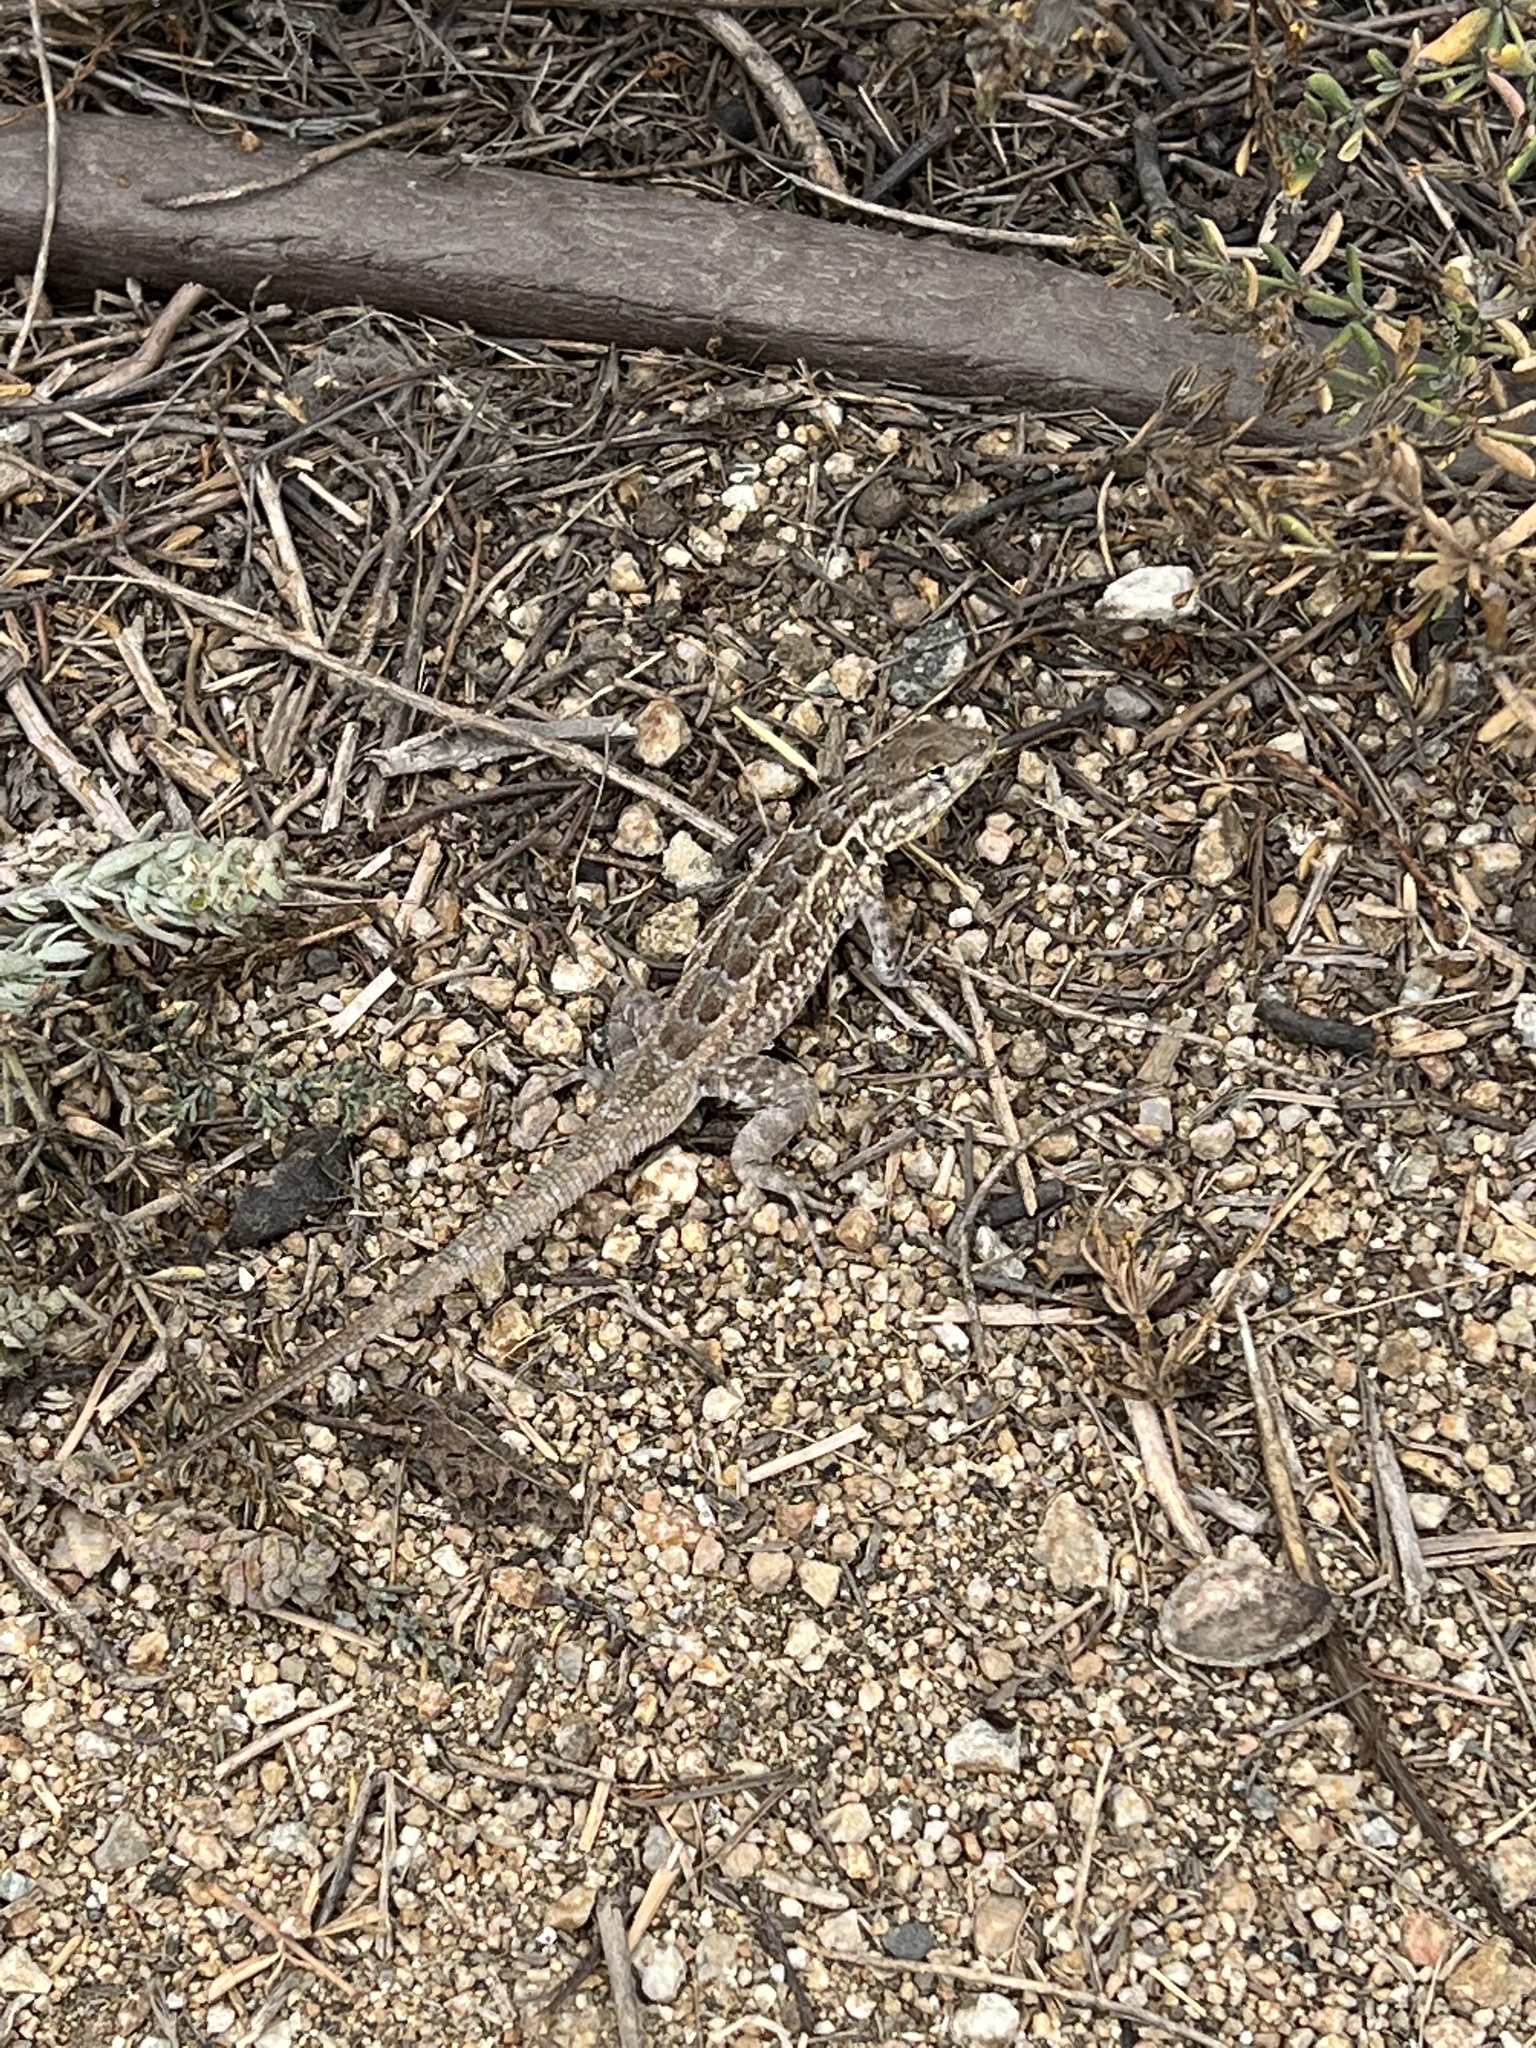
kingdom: Animalia
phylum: Chordata
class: Squamata
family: Phrynosomatidae
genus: Uta
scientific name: Uta stansburiana
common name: Side-blotched lizard
